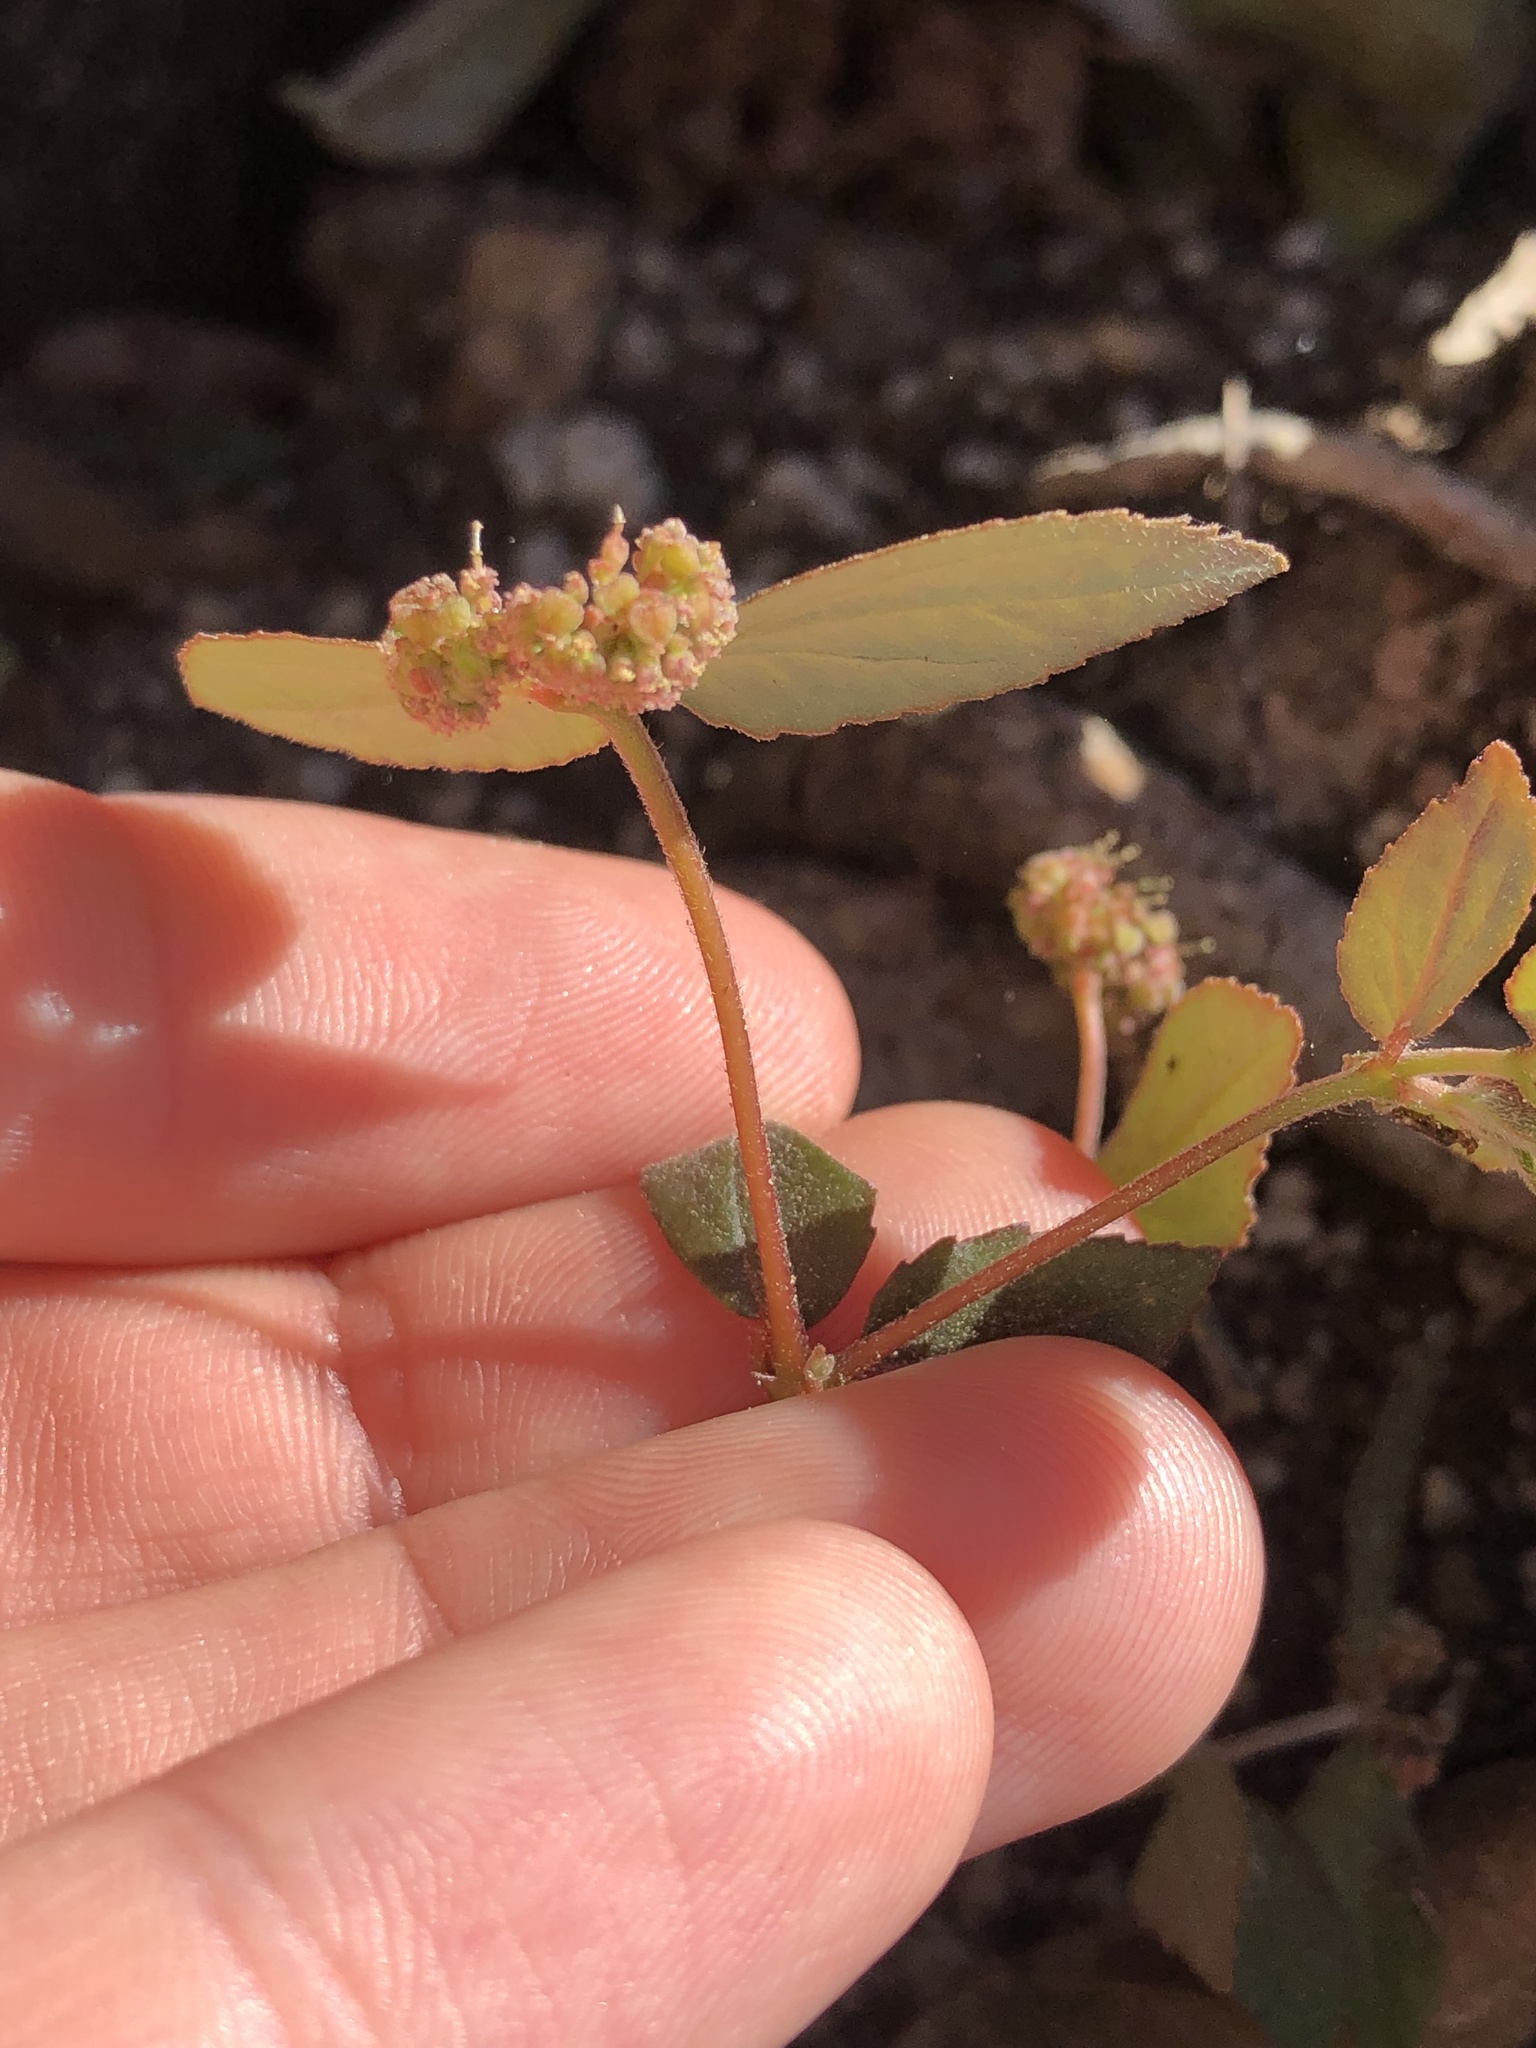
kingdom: Plantae
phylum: Tracheophyta
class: Magnoliopsida
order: Malpighiales
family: Euphorbiaceae
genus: Euphorbia
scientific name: Euphorbia ophthalmica
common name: Florida hammock sandmat
